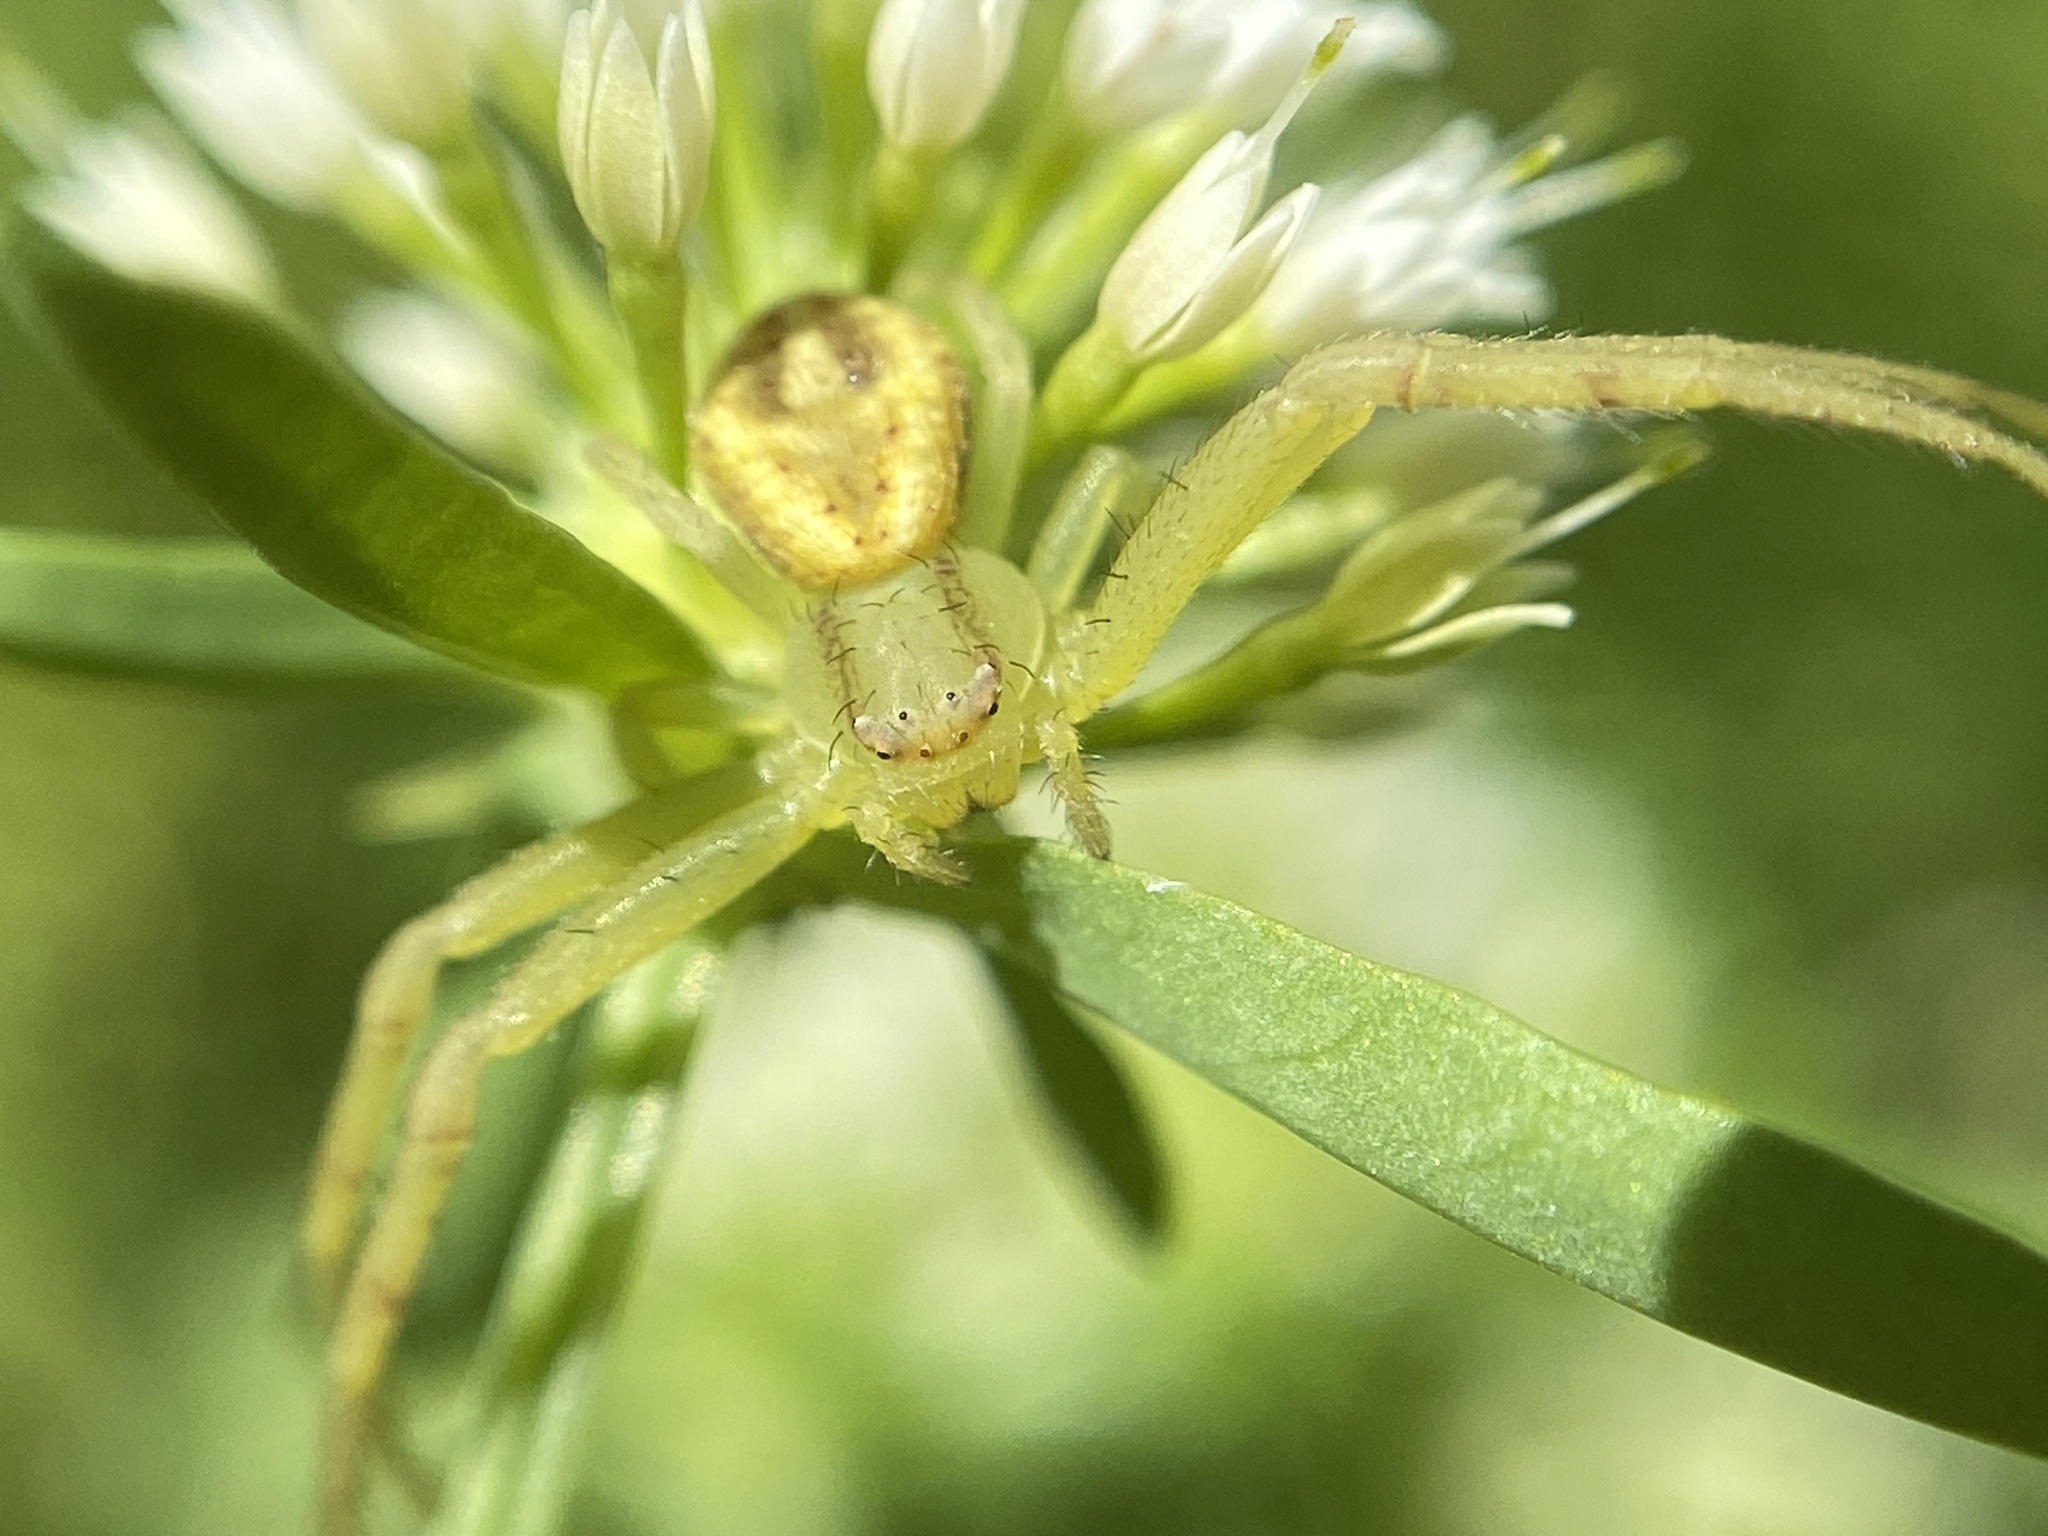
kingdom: Animalia
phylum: Arthropoda
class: Arachnida
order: Araneae
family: Thomisidae
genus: Misumenops
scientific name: Misumenops
